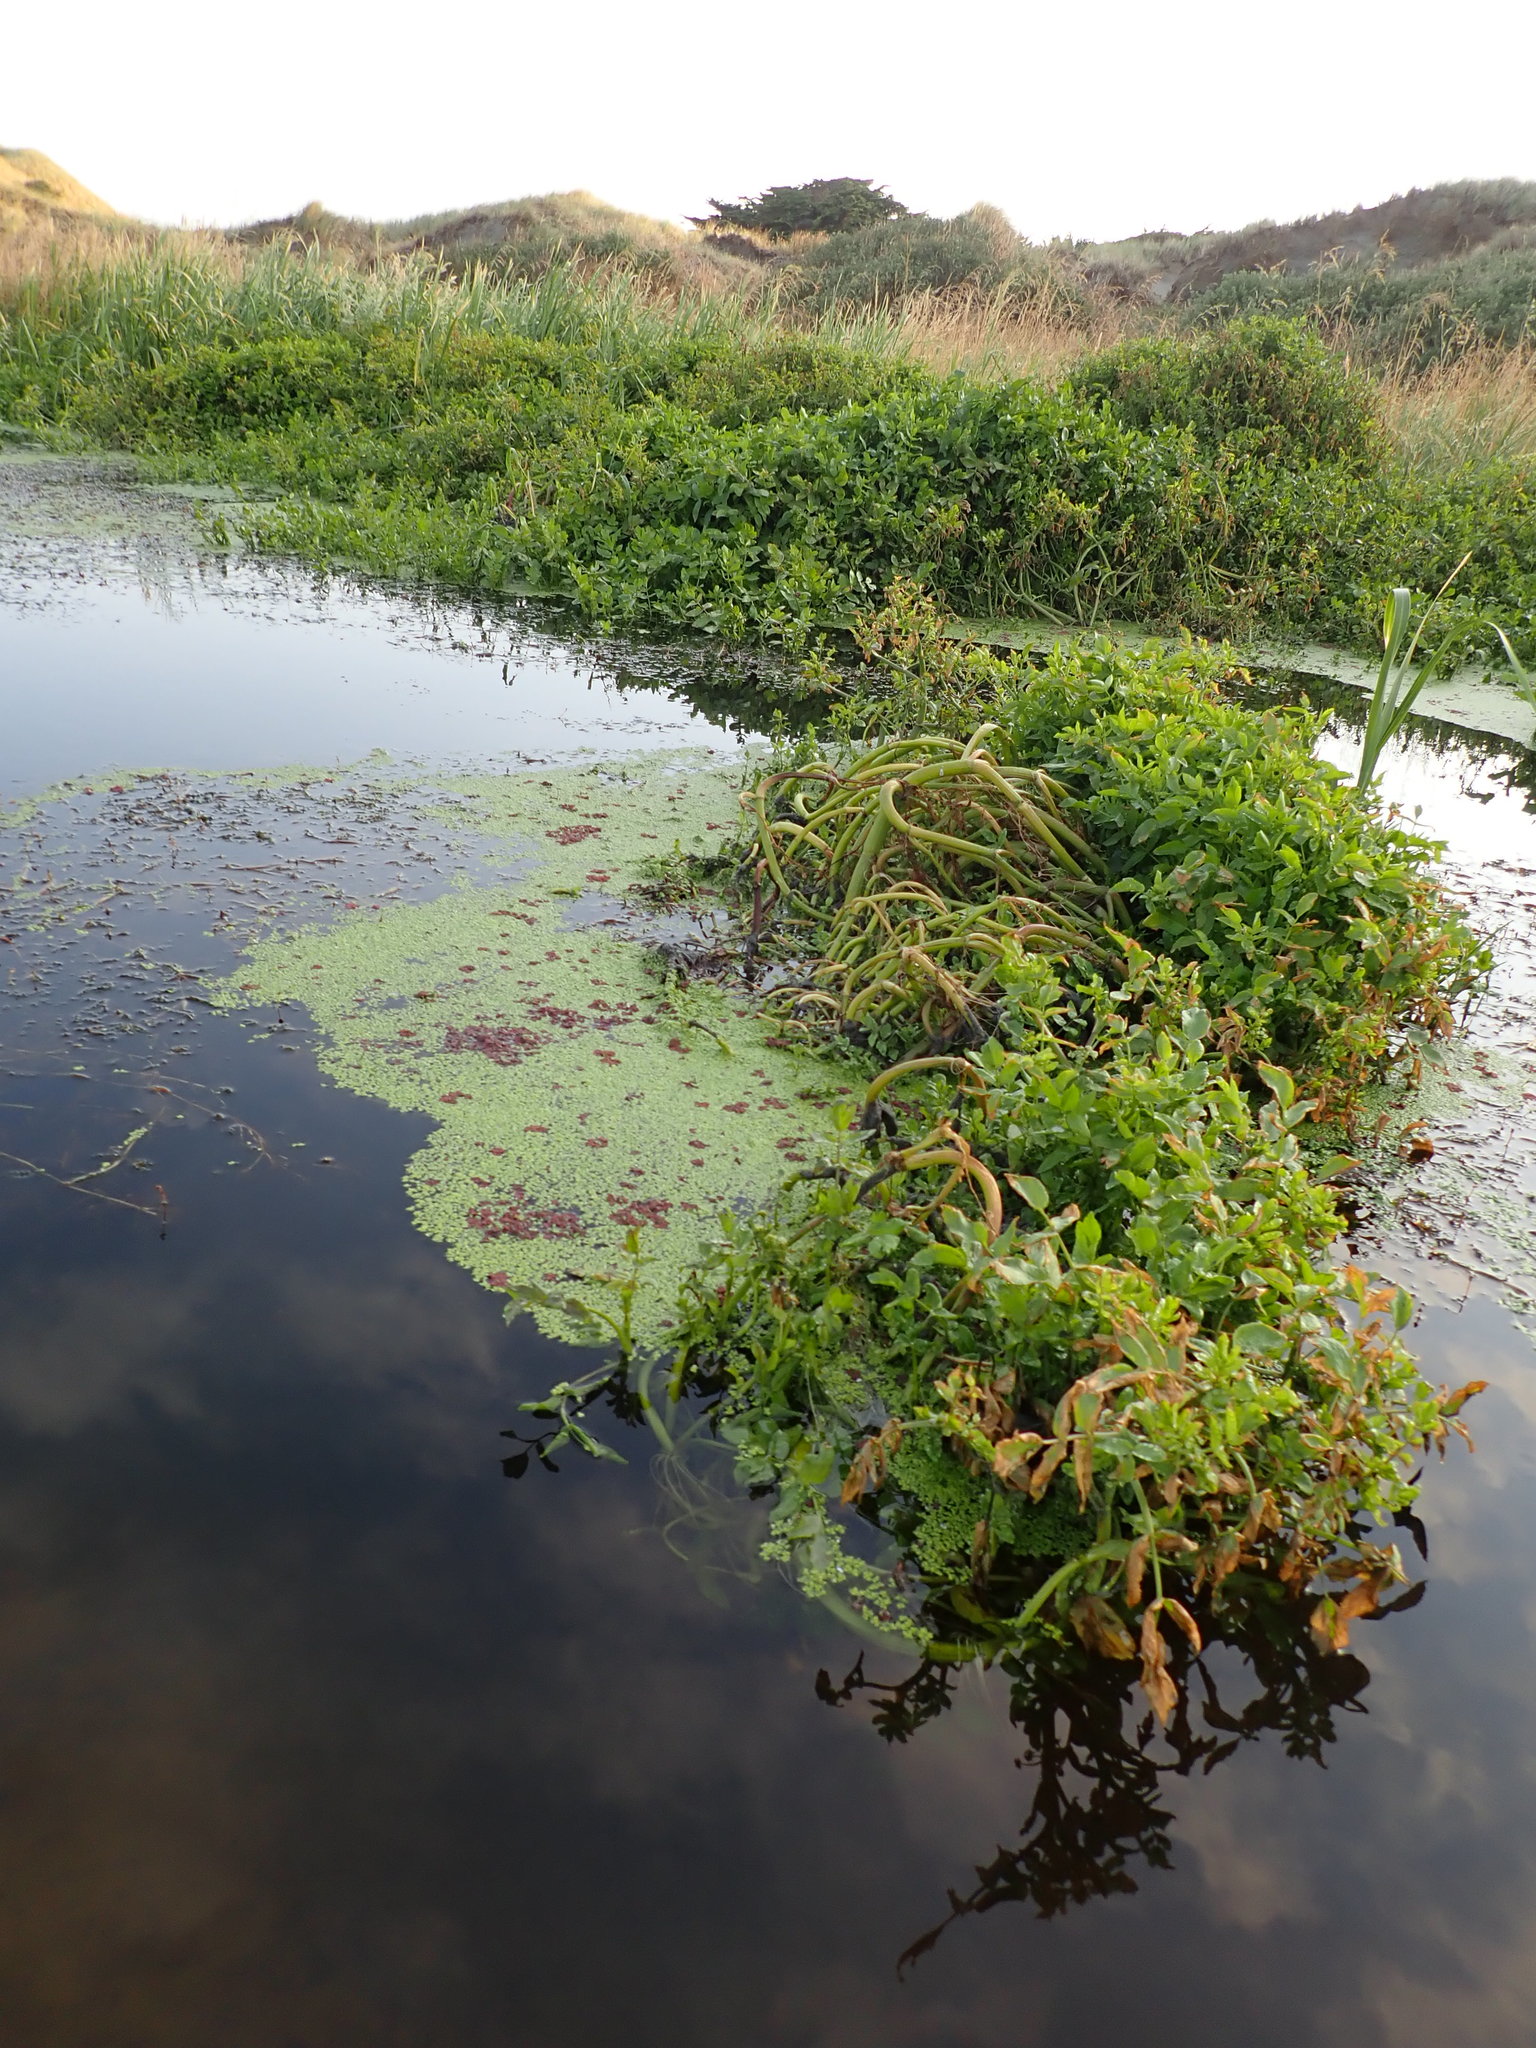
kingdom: Plantae
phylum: Tracheophyta
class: Liliopsida
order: Alismatales
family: Araceae
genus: Lemna
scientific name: Lemna disperma
